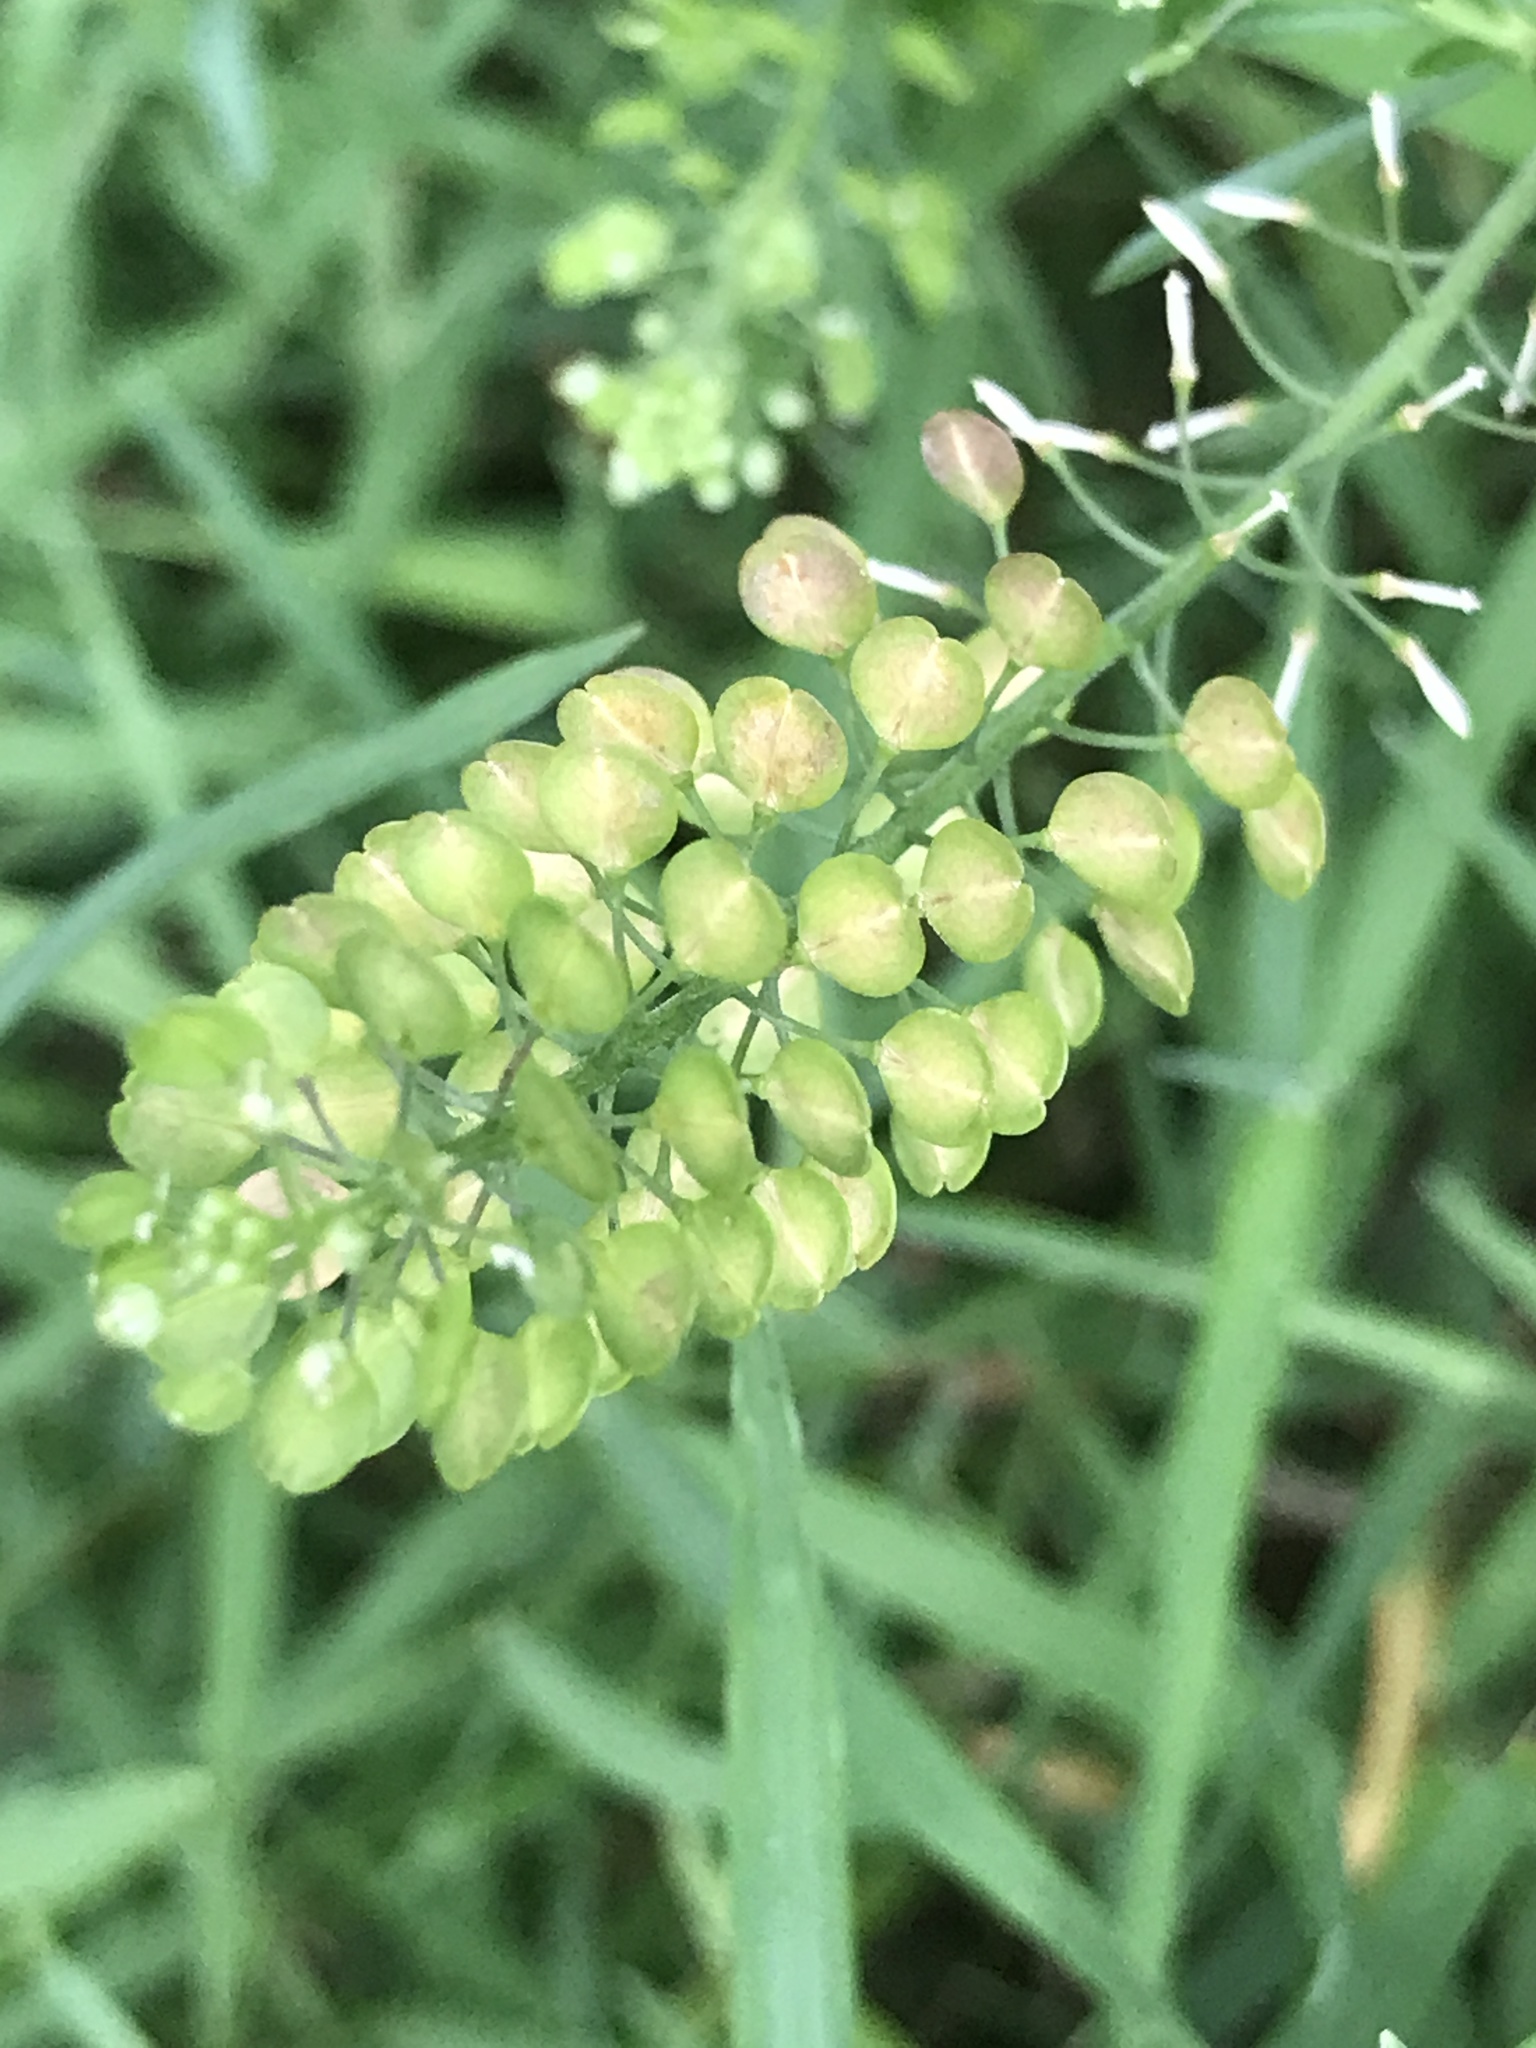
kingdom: Plantae
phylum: Tracheophyta
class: Magnoliopsida
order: Brassicales
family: Brassicaceae
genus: Lepidium
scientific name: Lepidium virginicum
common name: Least pepperwort
